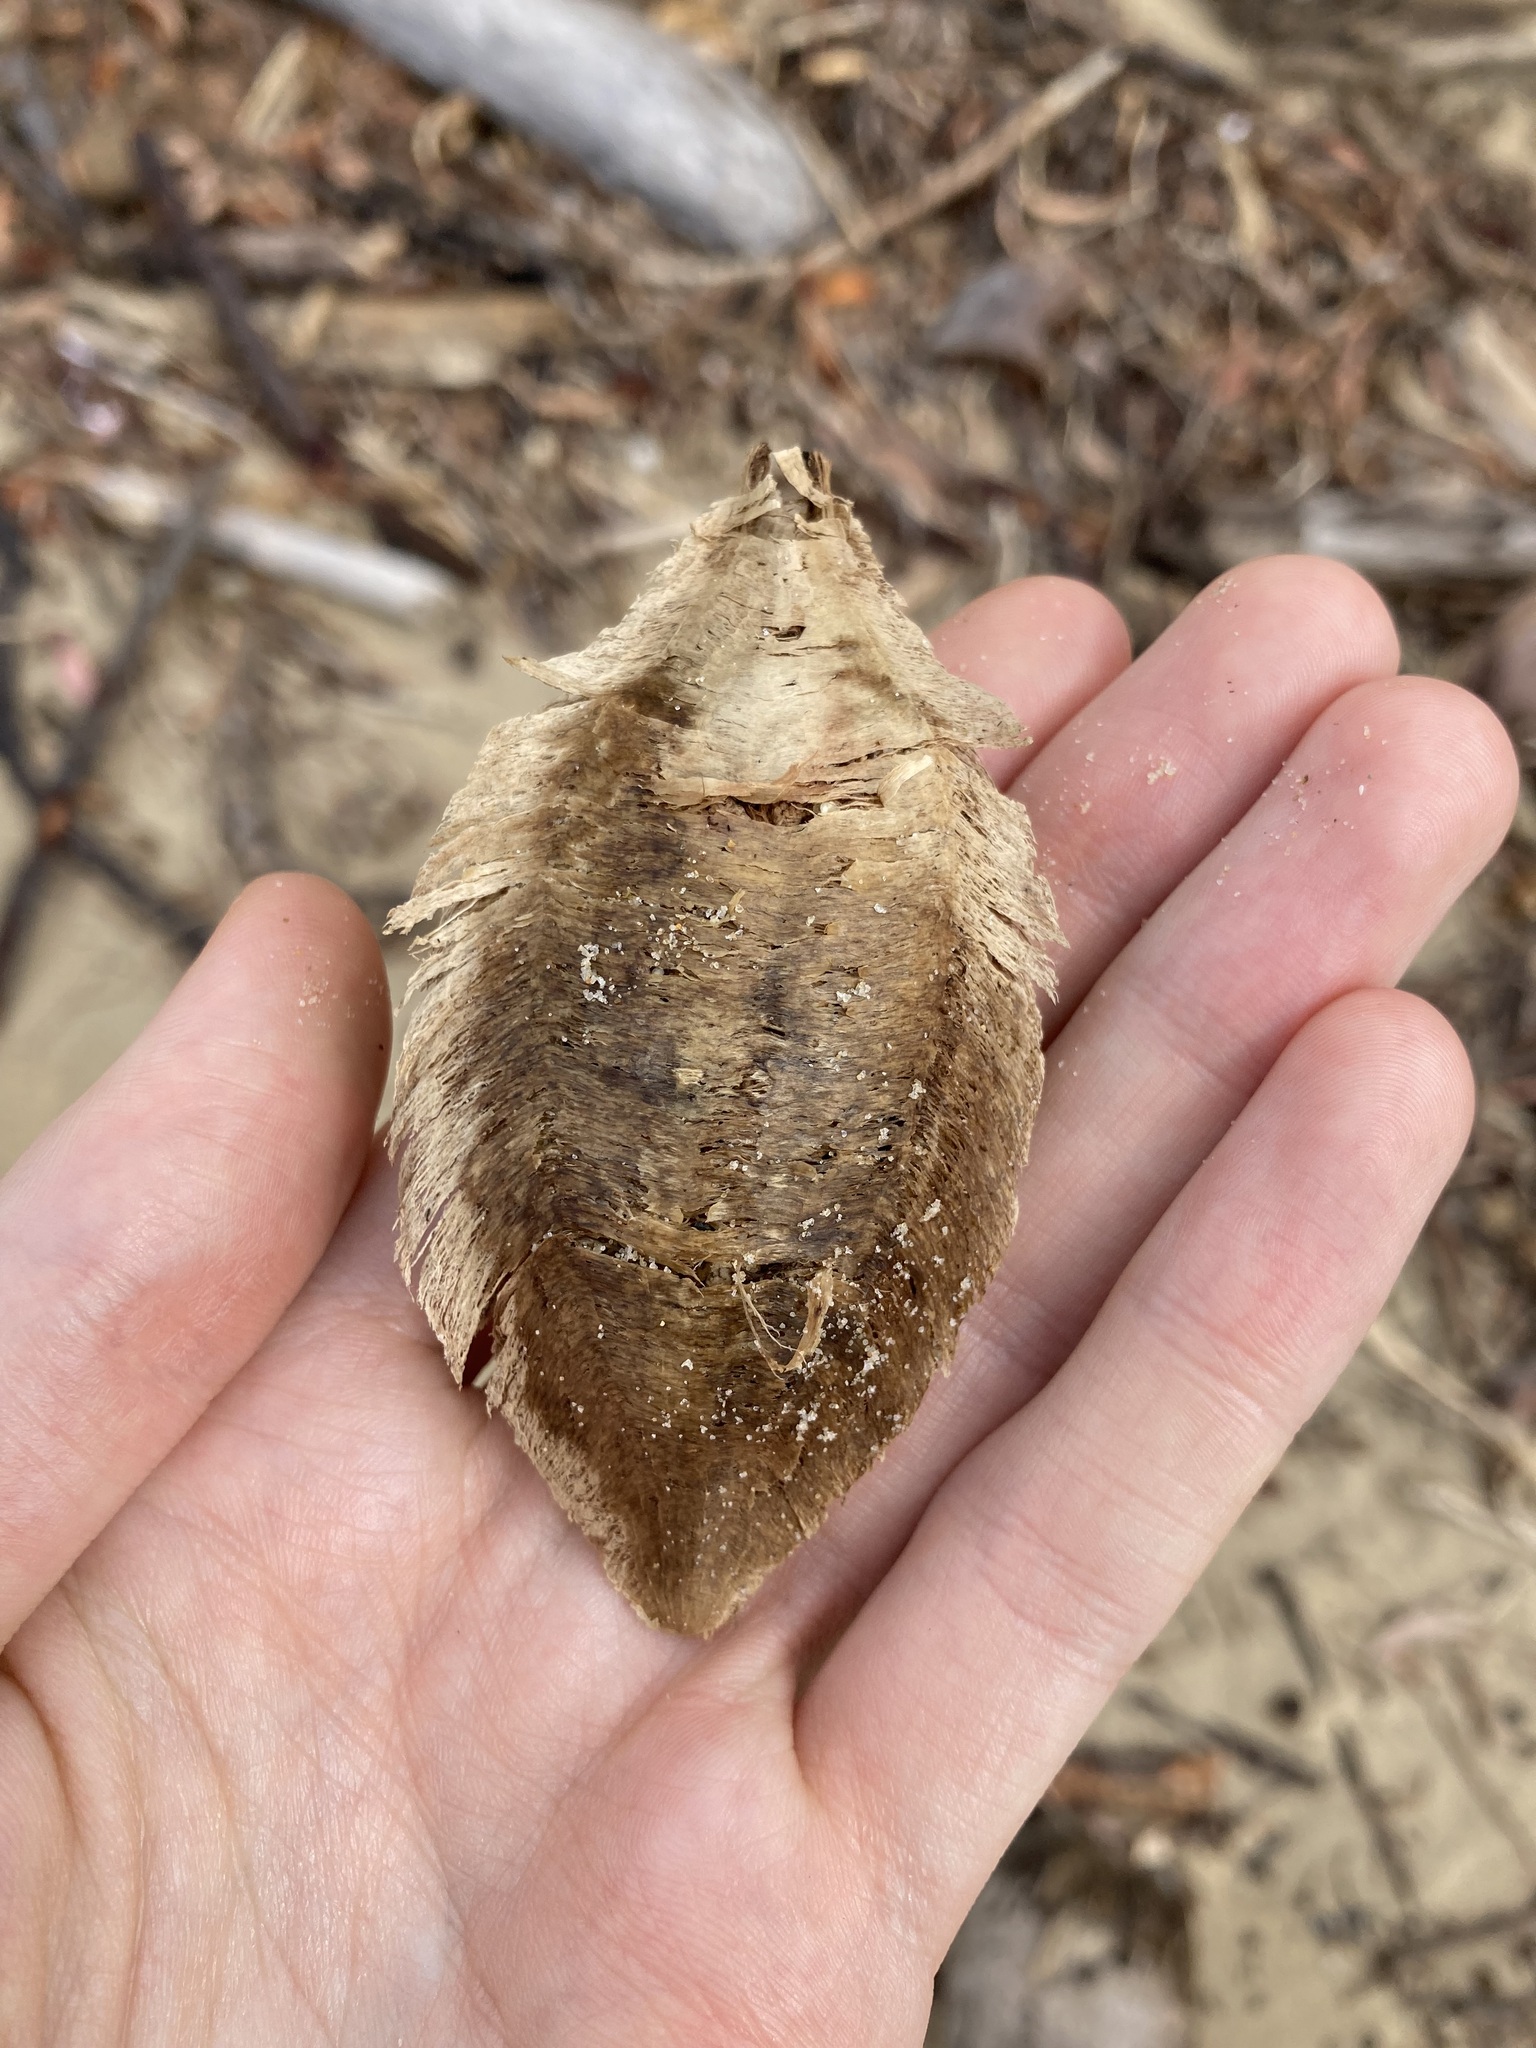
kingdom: Plantae
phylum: Tracheophyta
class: Magnoliopsida
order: Myrtales
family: Combretaceae
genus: Terminalia
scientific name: Terminalia catappa
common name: Tropical almond
